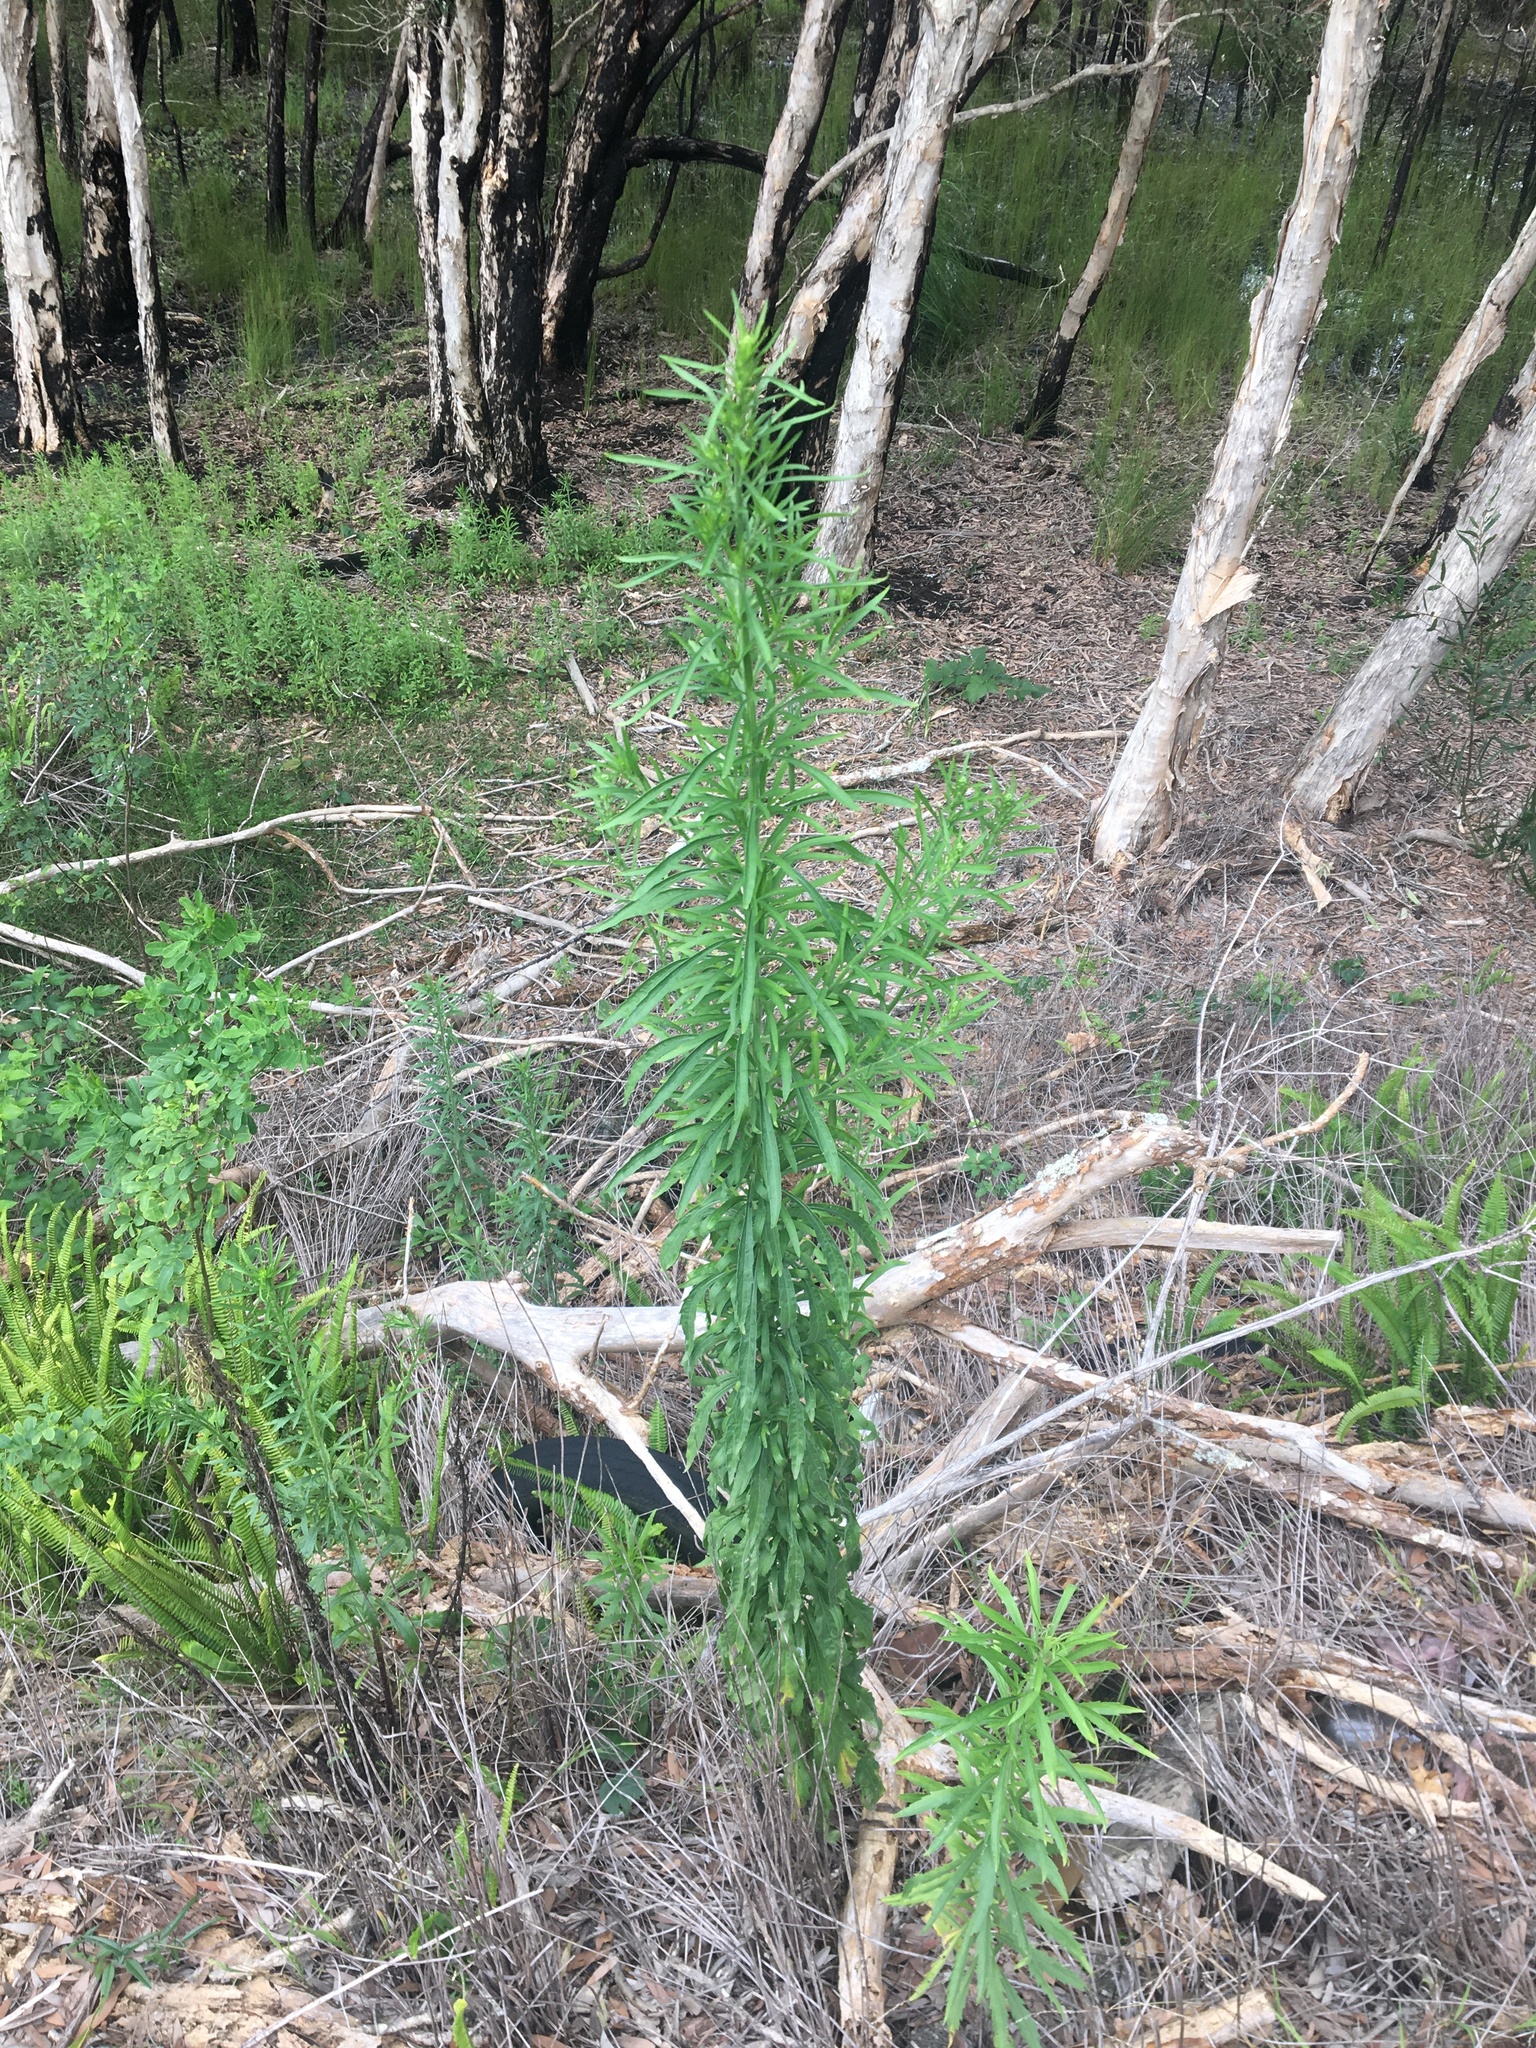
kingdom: Plantae
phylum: Tracheophyta
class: Magnoliopsida
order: Asterales
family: Asteraceae
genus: Erigeron
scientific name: Erigeron sumatrensis
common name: Daisy
